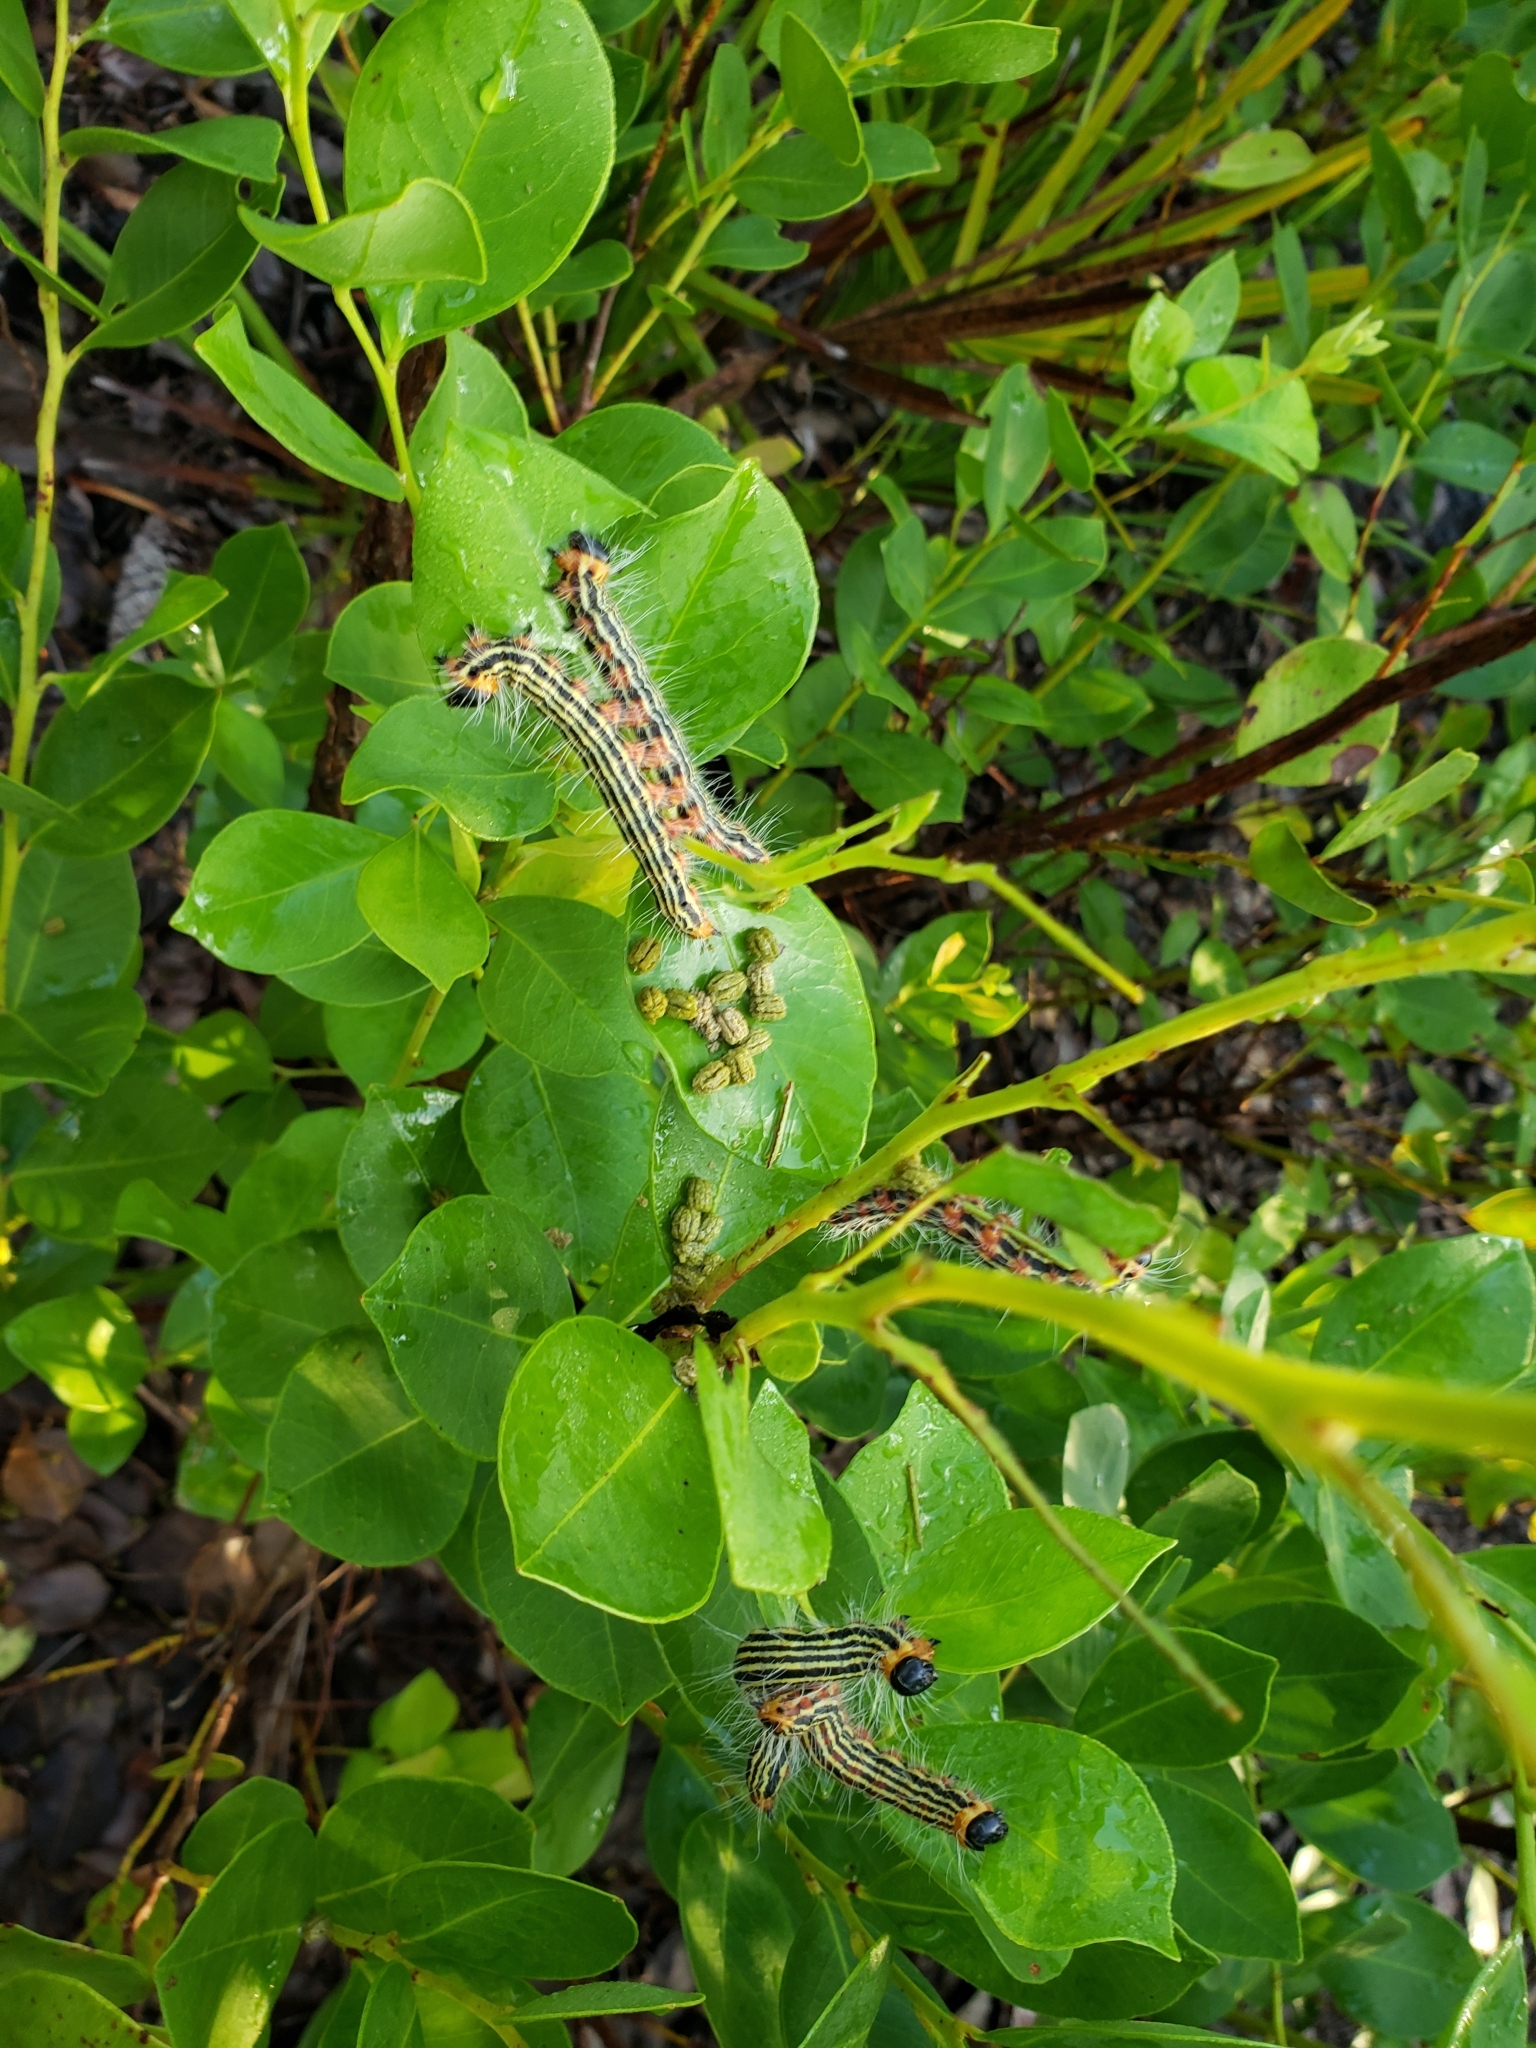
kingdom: Animalia
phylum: Arthropoda
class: Insecta
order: Lepidoptera
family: Notodontidae
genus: Datana
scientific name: Datana ministra
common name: Yellow-necked caterpillar moth
